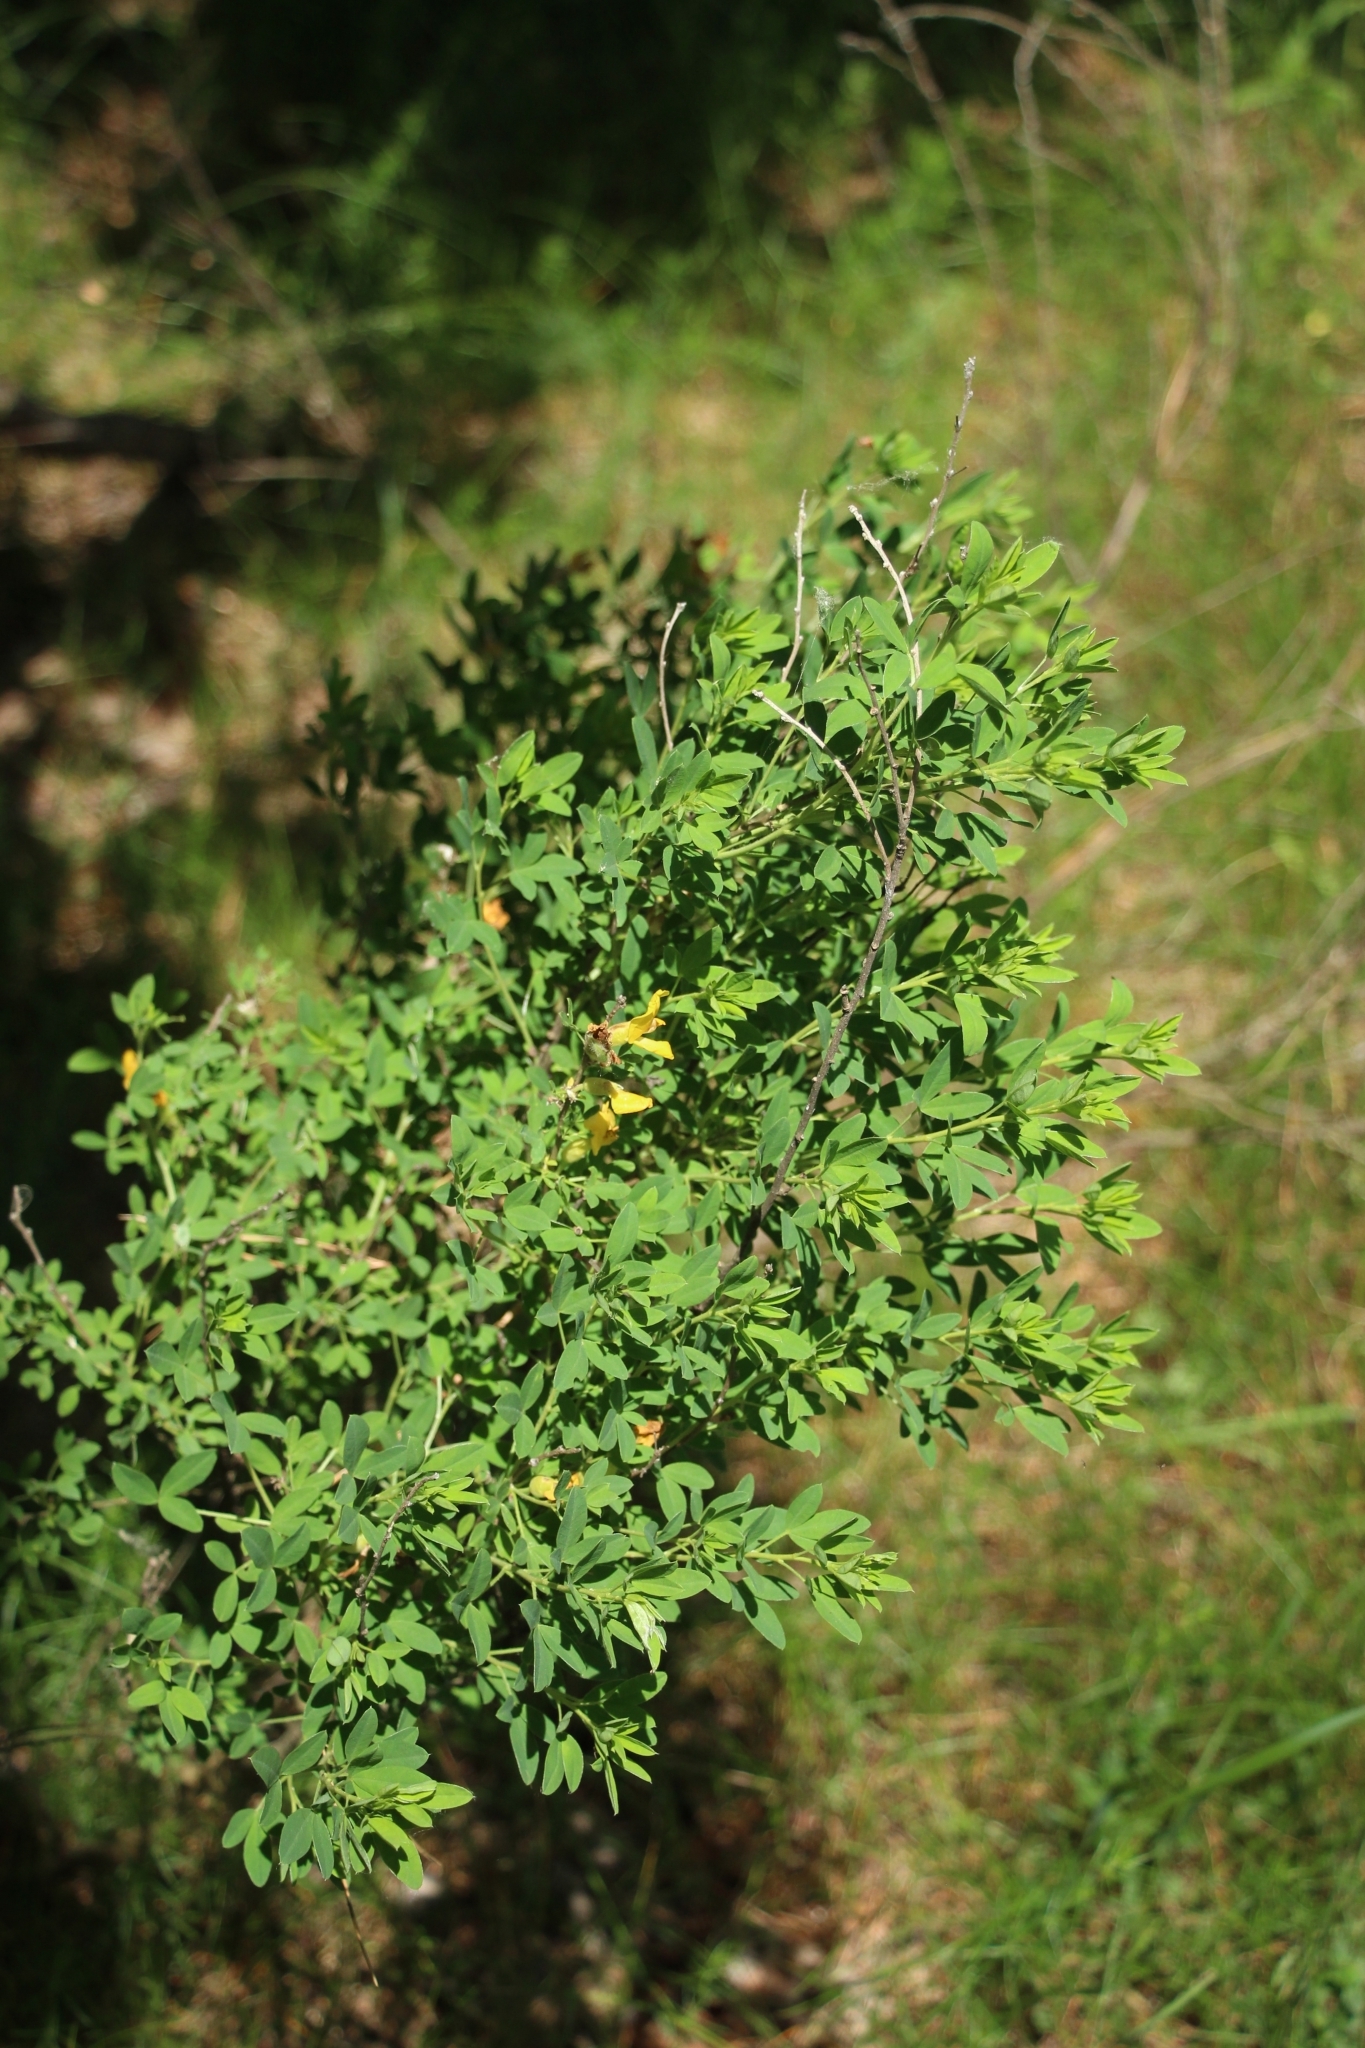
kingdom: Plantae
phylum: Tracheophyta
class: Magnoliopsida
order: Fabales
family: Fabaceae
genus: Chamaecytisus
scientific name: Chamaecytisus ruthenicus
